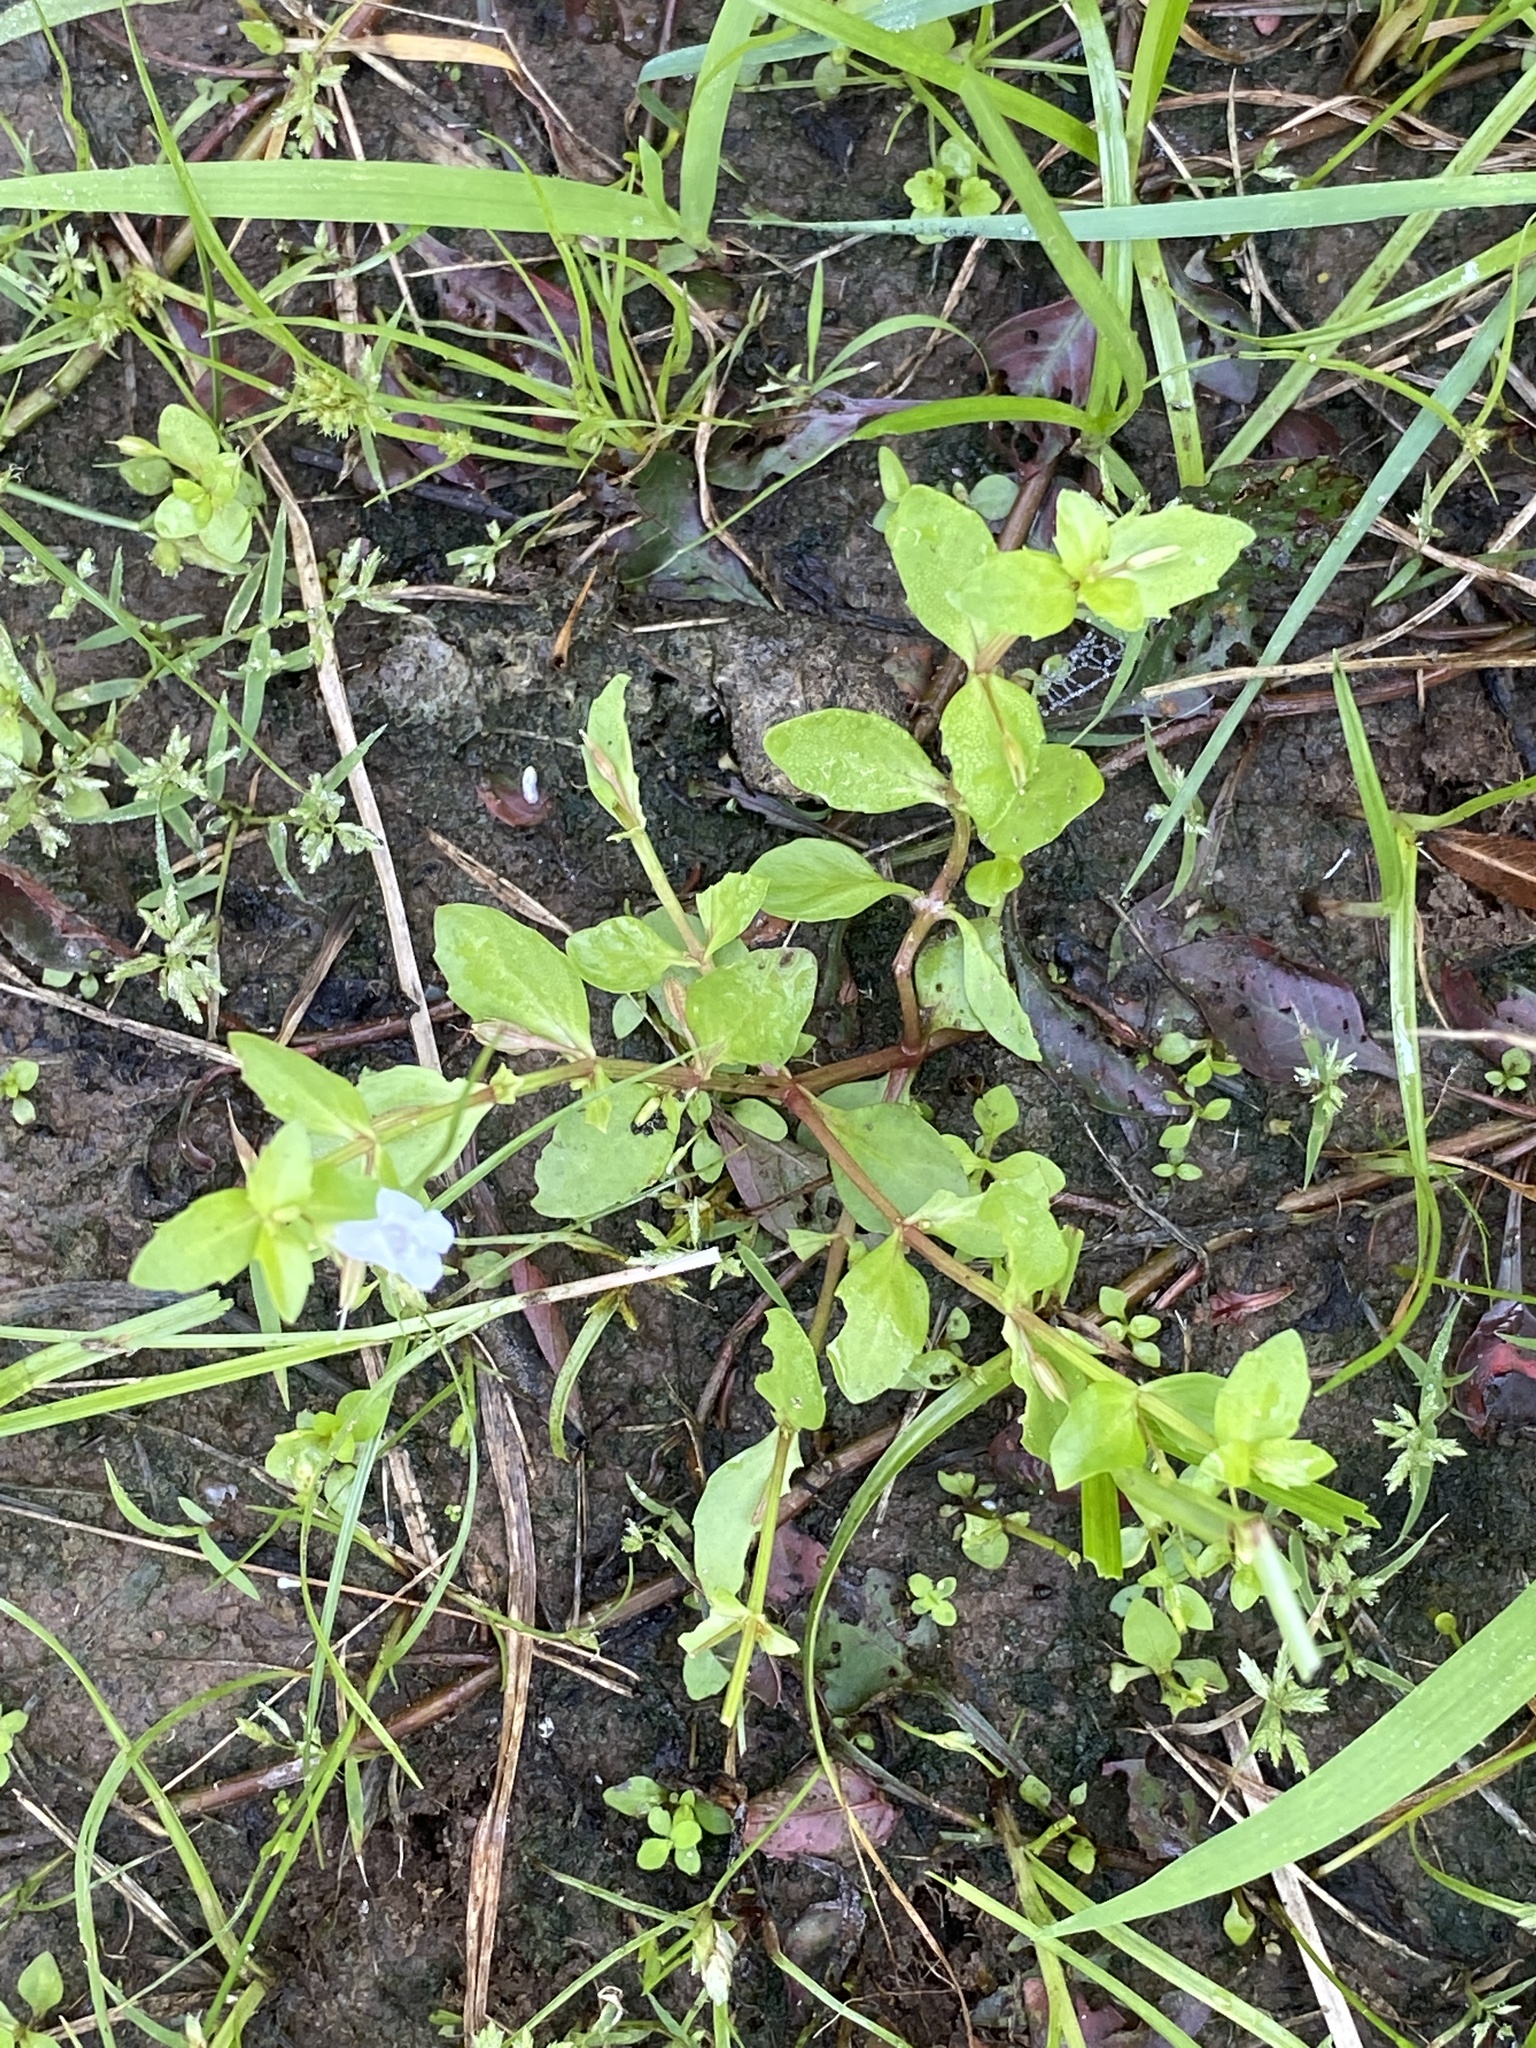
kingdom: Plantae
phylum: Tracheophyta
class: Magnoliopsida
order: Lamiales
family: Linderniaceae
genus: Lindernia
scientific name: Lindernia dubia
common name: Annual false pimpernel
